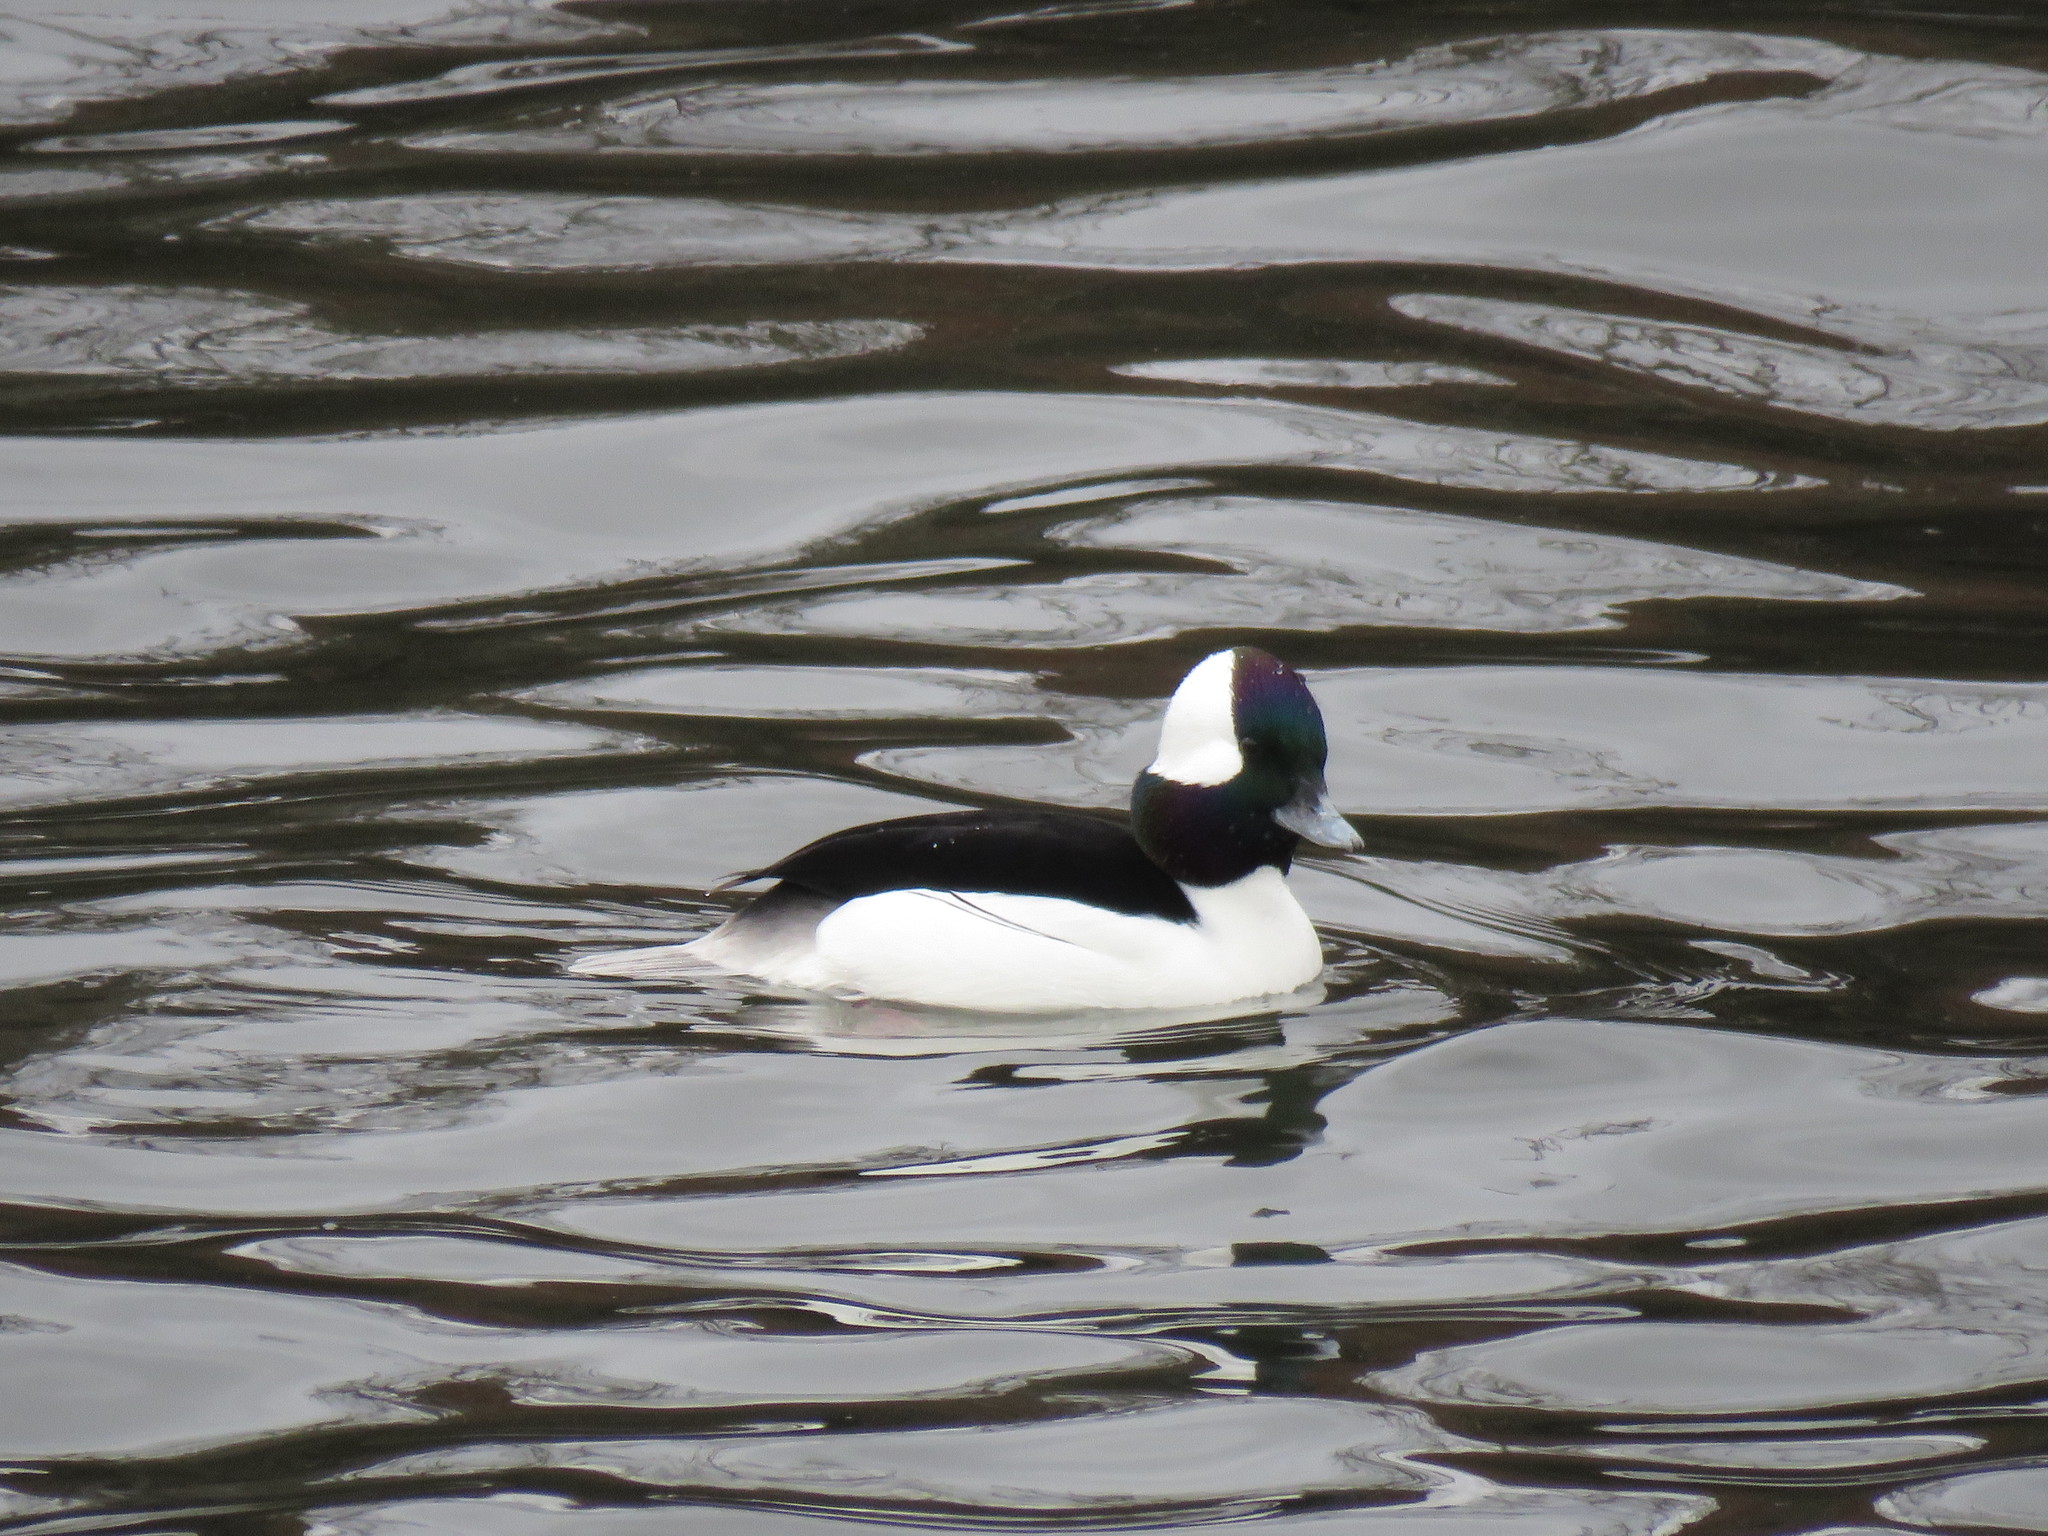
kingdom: Animalia
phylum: Chordata
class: Aves
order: Anseriformes
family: Anatidae
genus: Bucephala
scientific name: Bucephala albeola
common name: Bufflehead
